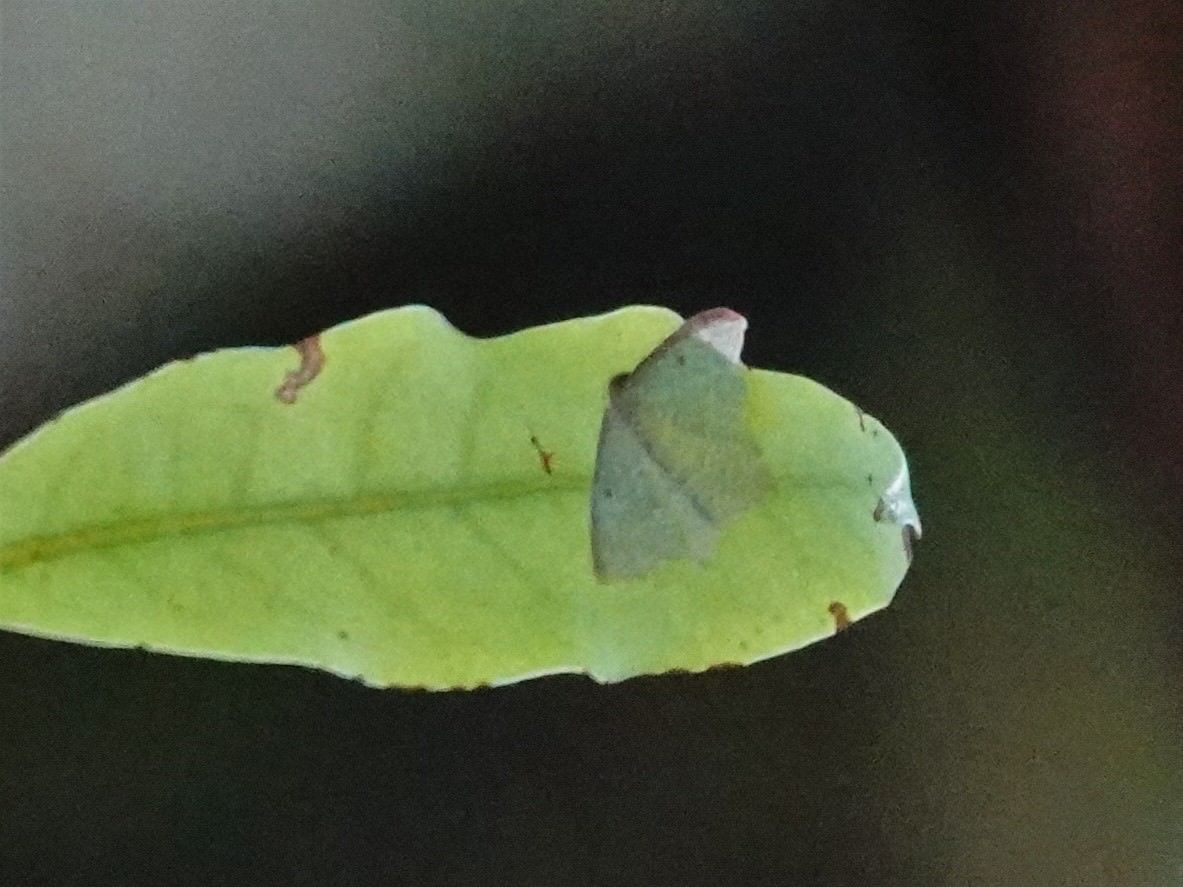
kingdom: Animalia
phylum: Arthropoda
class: Insecta
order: Lepidoptera
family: Geometridae
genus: Poecilasthena
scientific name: Poecilasthena pulchraria
